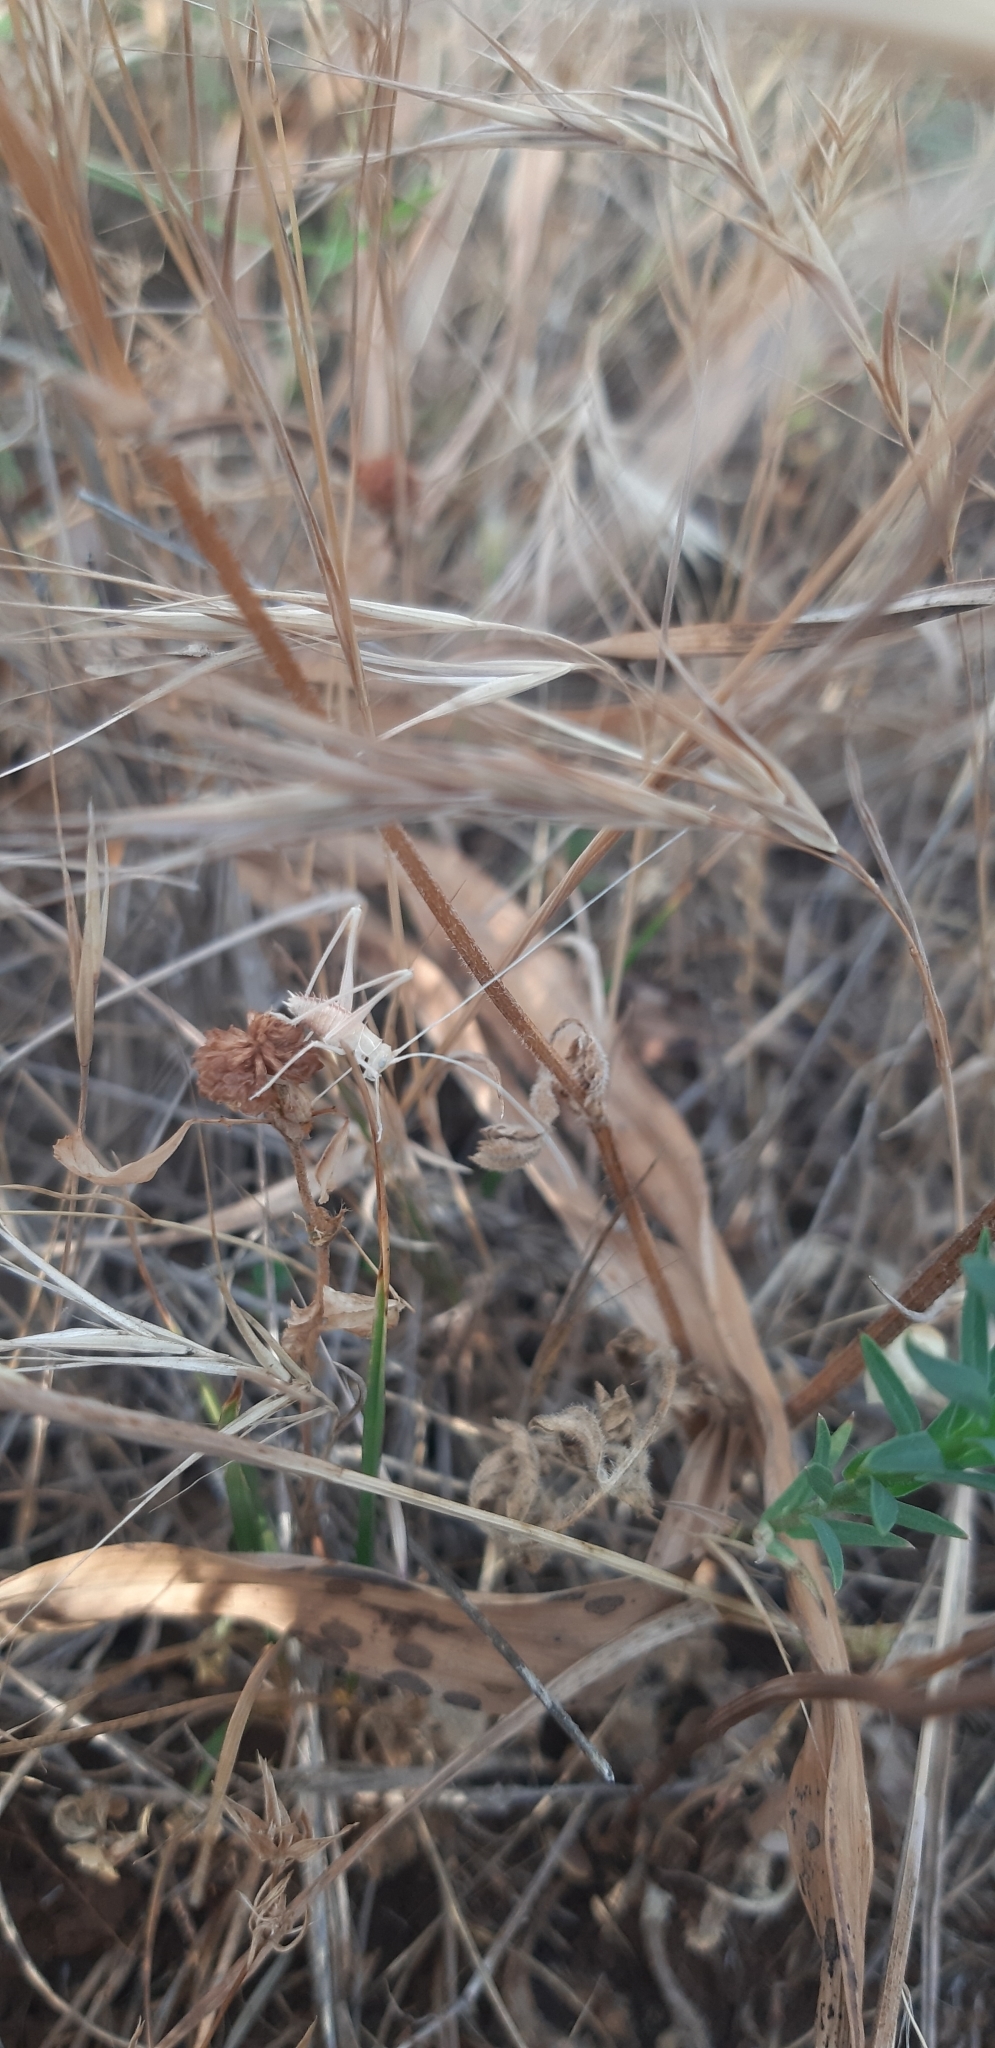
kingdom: Animalia
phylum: Arthropoda
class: Insecta
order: Orthoptera
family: Tettigoniidae
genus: Tylopsis
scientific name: Tylopsis lilifolia
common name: Lily bush-cricket
